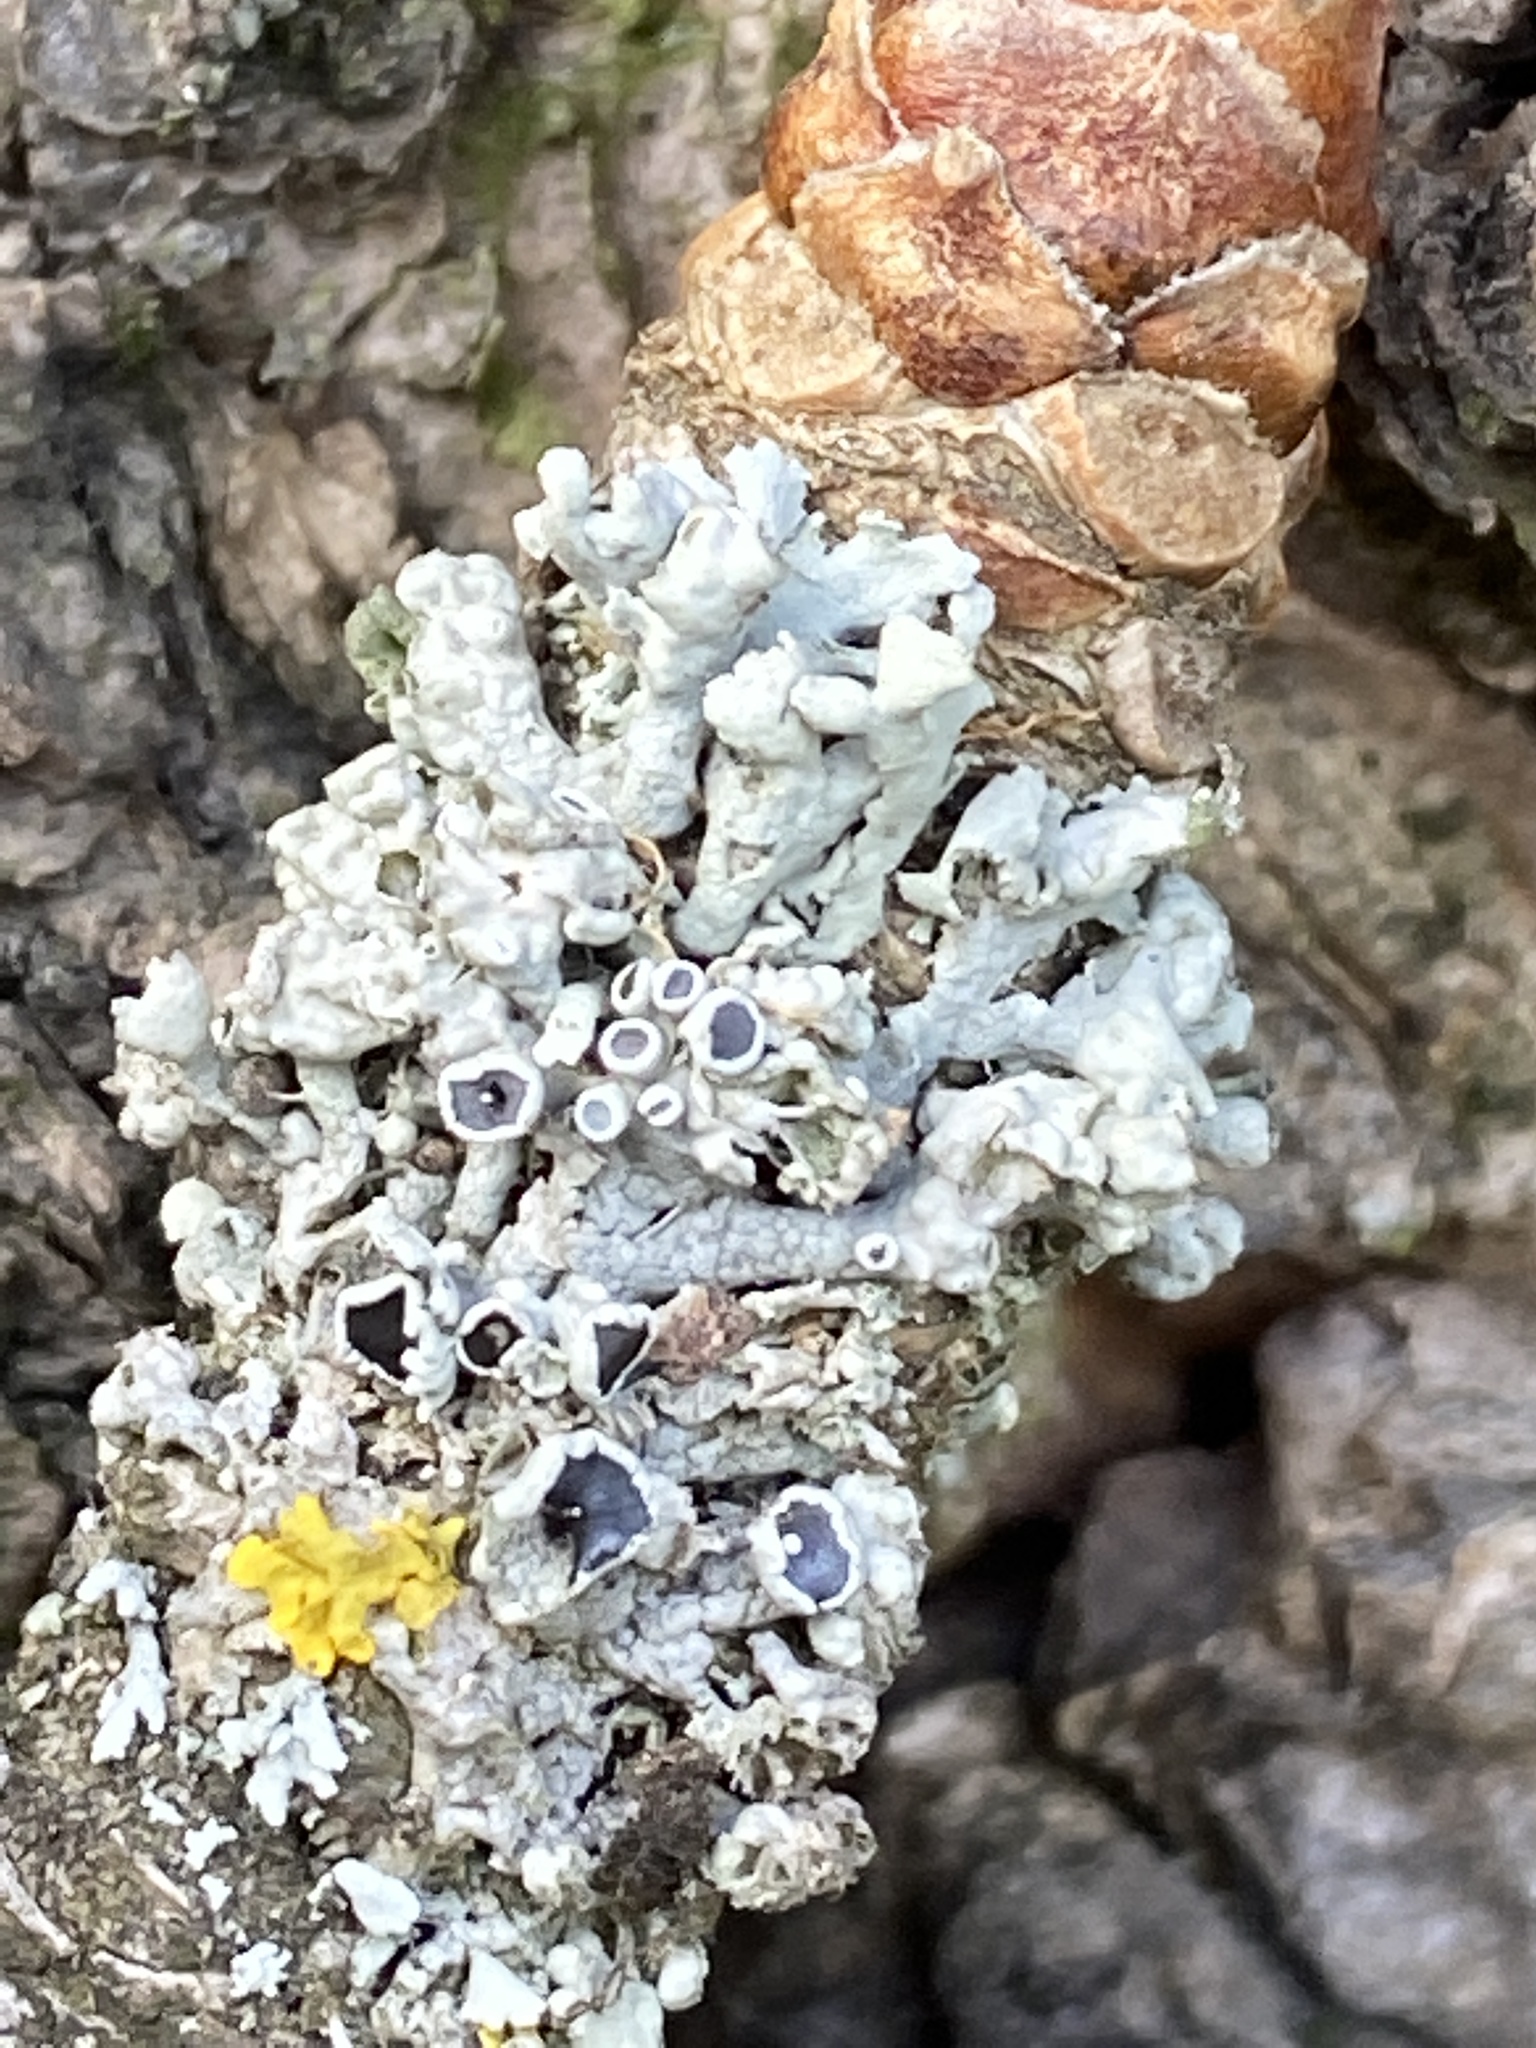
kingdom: Fungi
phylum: Ascomycota
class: Lecanoromycetes
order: Caliciales
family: Physciaceae
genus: Physcia
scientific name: Physcia adscendens
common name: Hooded rosette lichen
